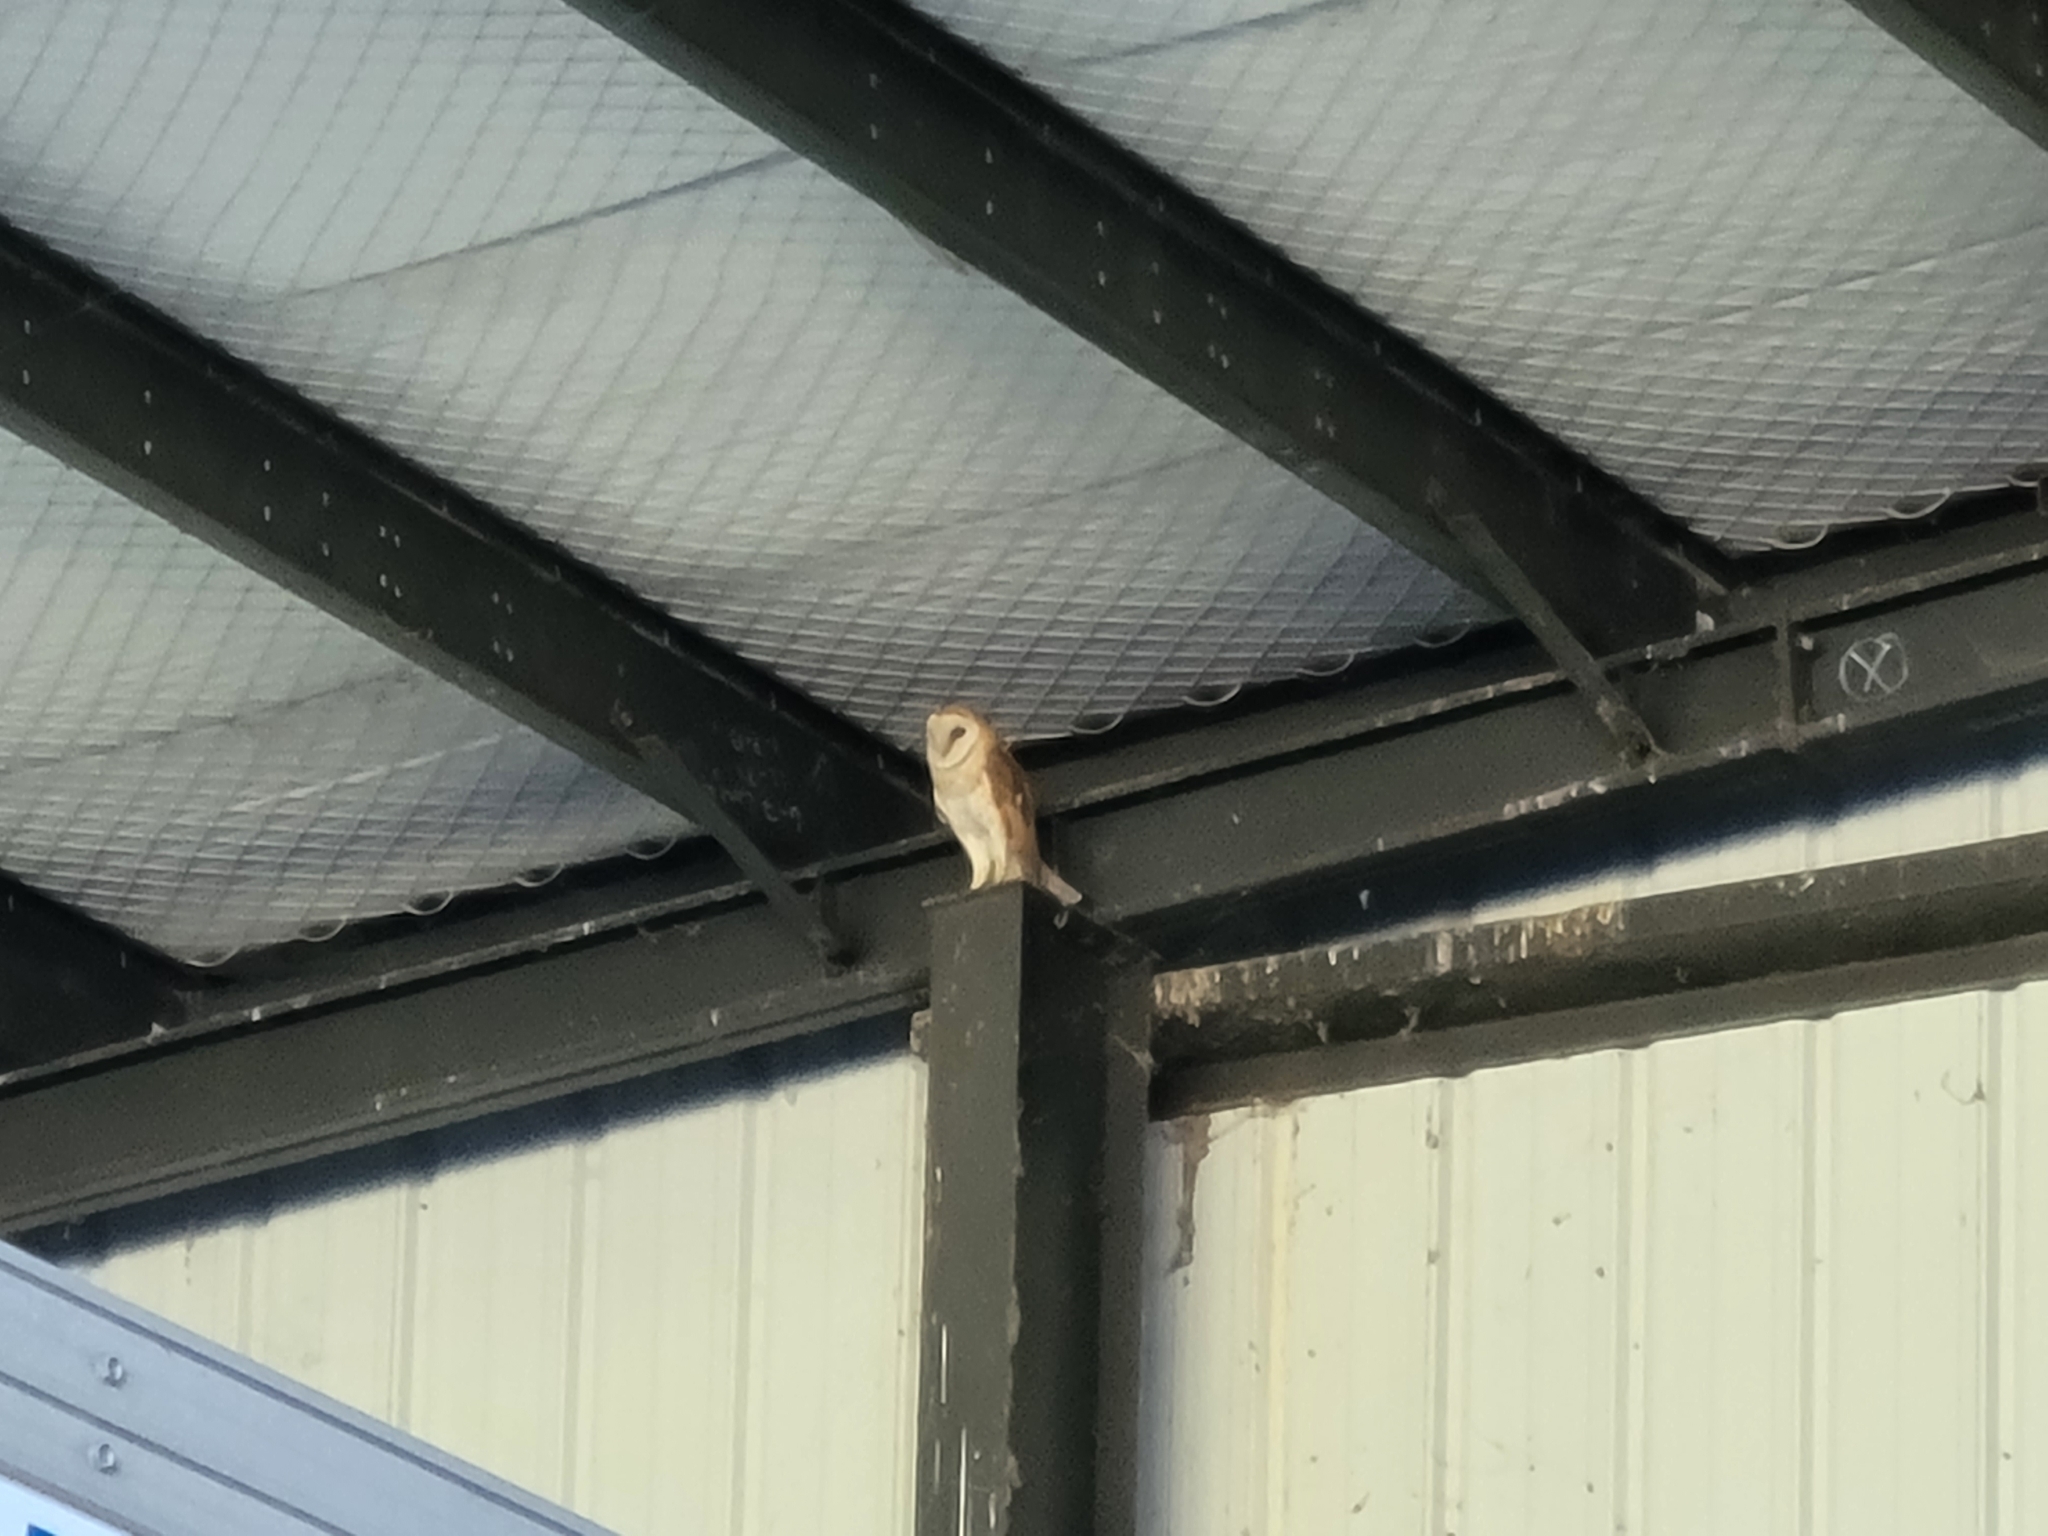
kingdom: Animalia
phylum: Chordata
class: Aves
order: Strigiformes
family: Tytonidae
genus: Tyto
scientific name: Tyto alba
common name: Barn owl
